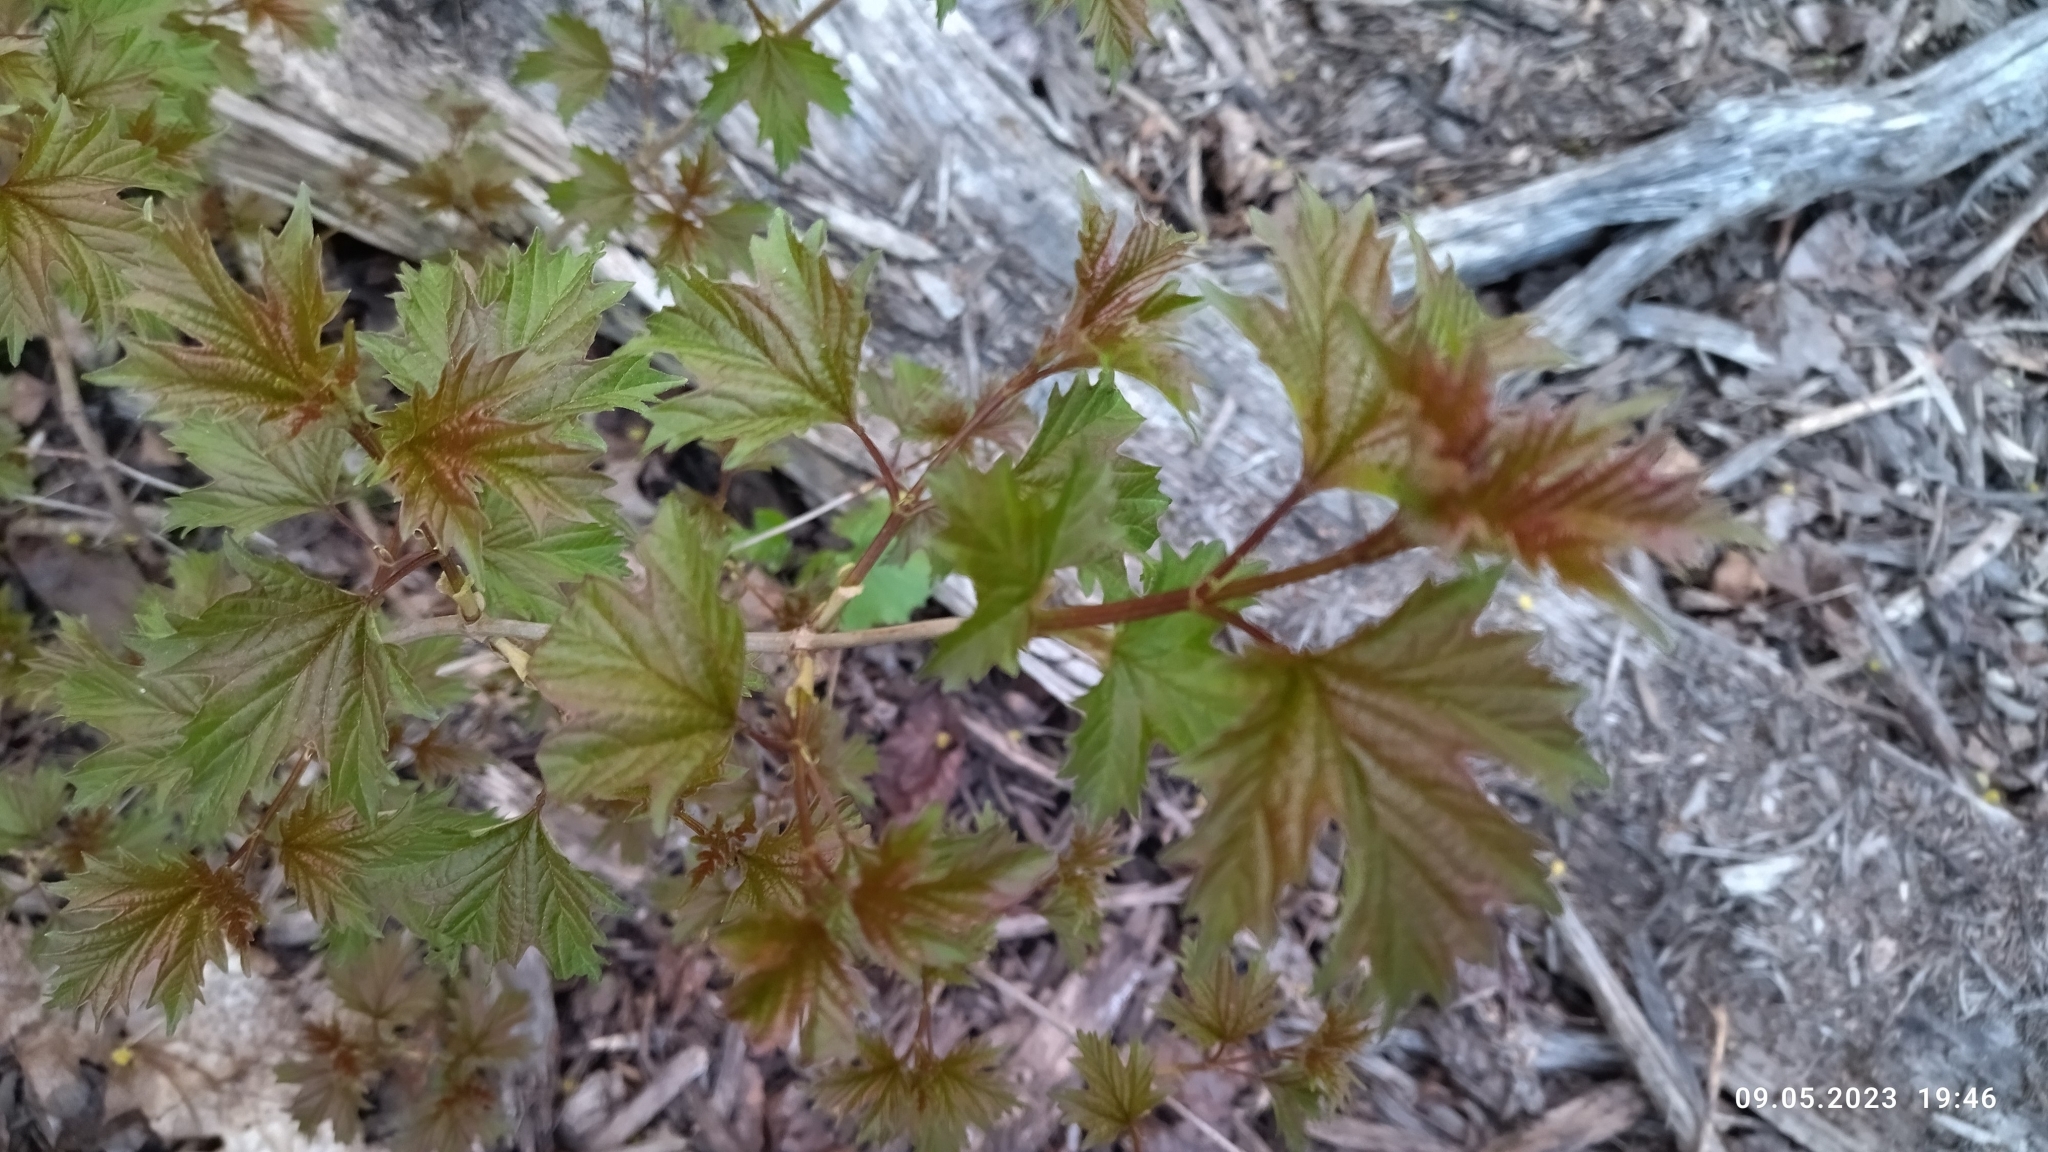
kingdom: Plantae
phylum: Tracheophyta
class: Magnoliopsida
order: Dipsacales
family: Viburnaceae
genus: Viburnum
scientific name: Viburnum opulus
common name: Guelder-rose
